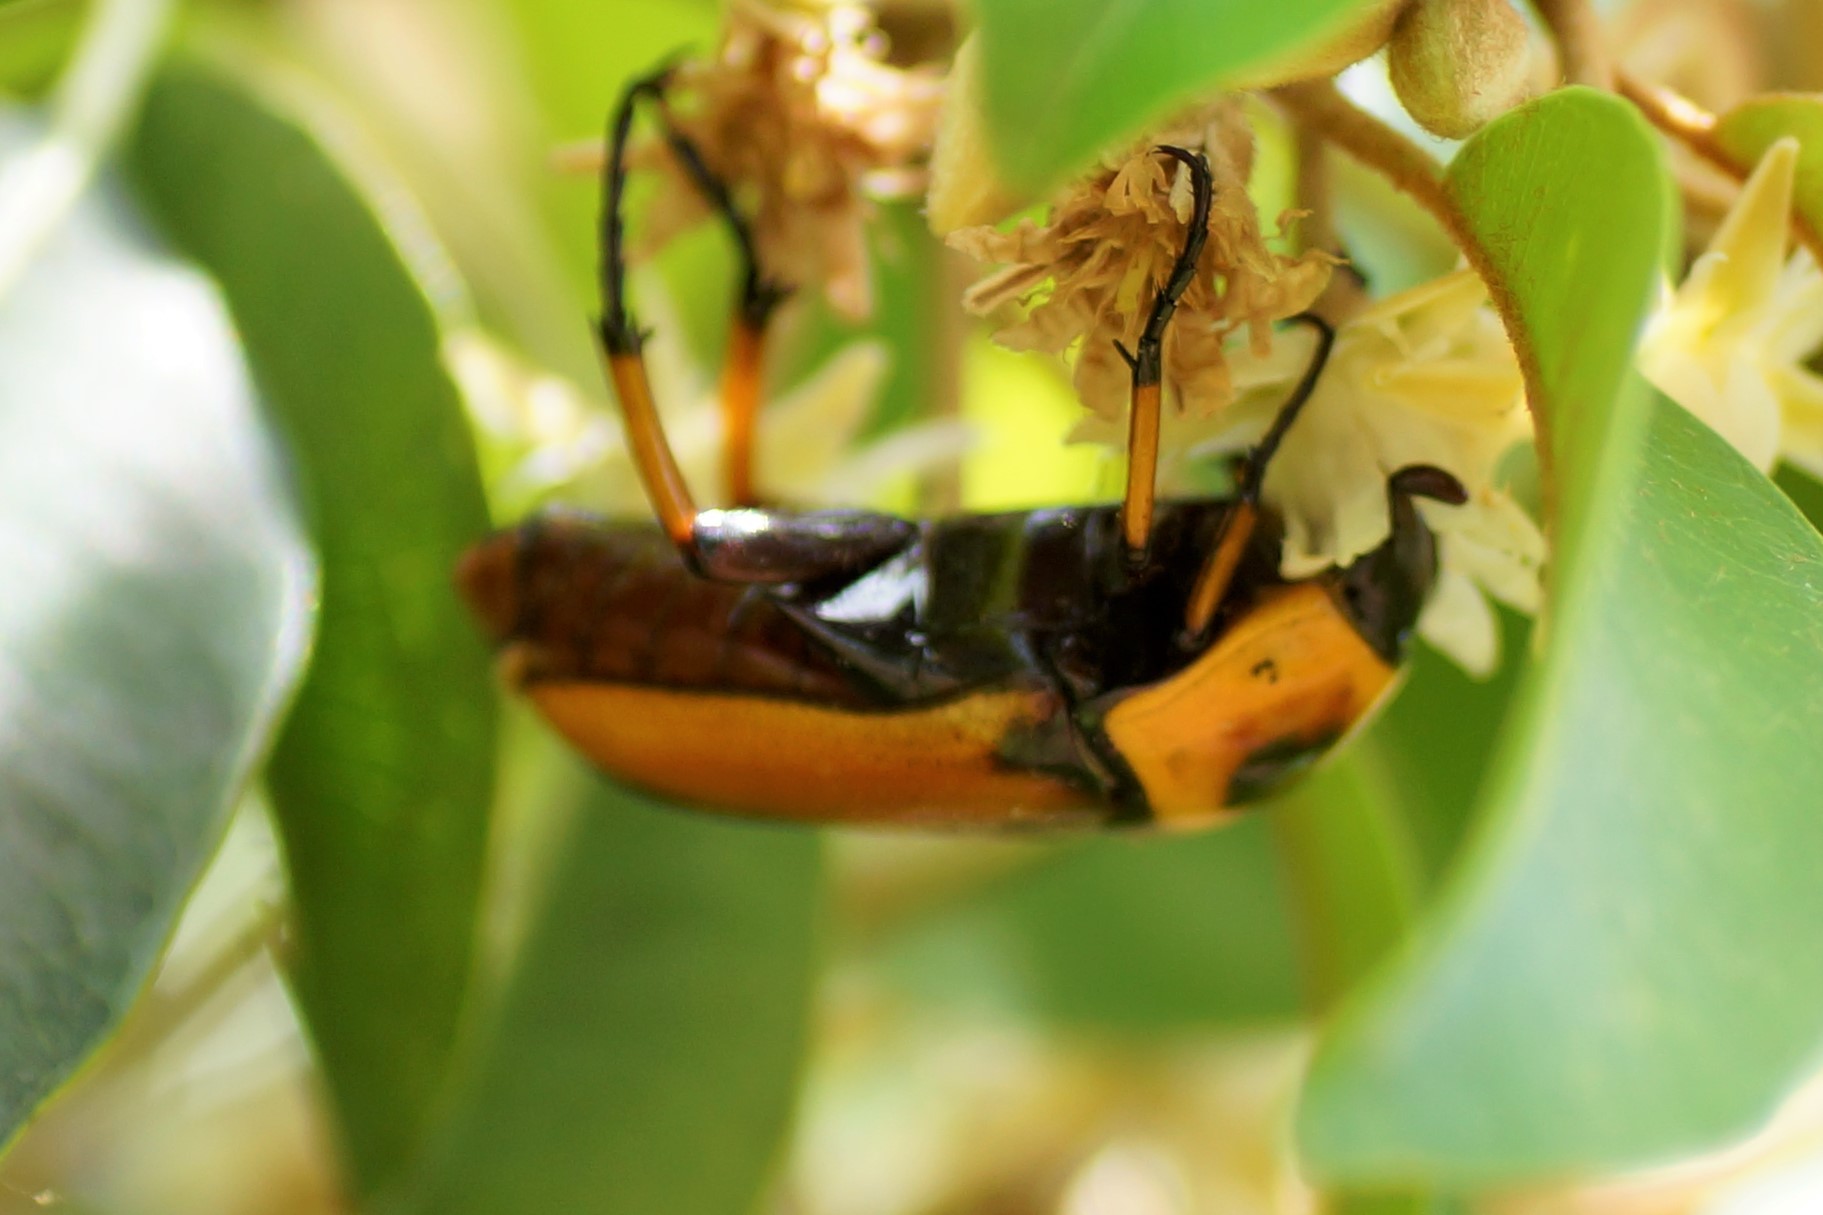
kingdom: Animalia
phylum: Arthropoda
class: Insecta
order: Coleoptera
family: Scarabaeidae
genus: Dilochrosis
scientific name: Dilochrosis brownii
